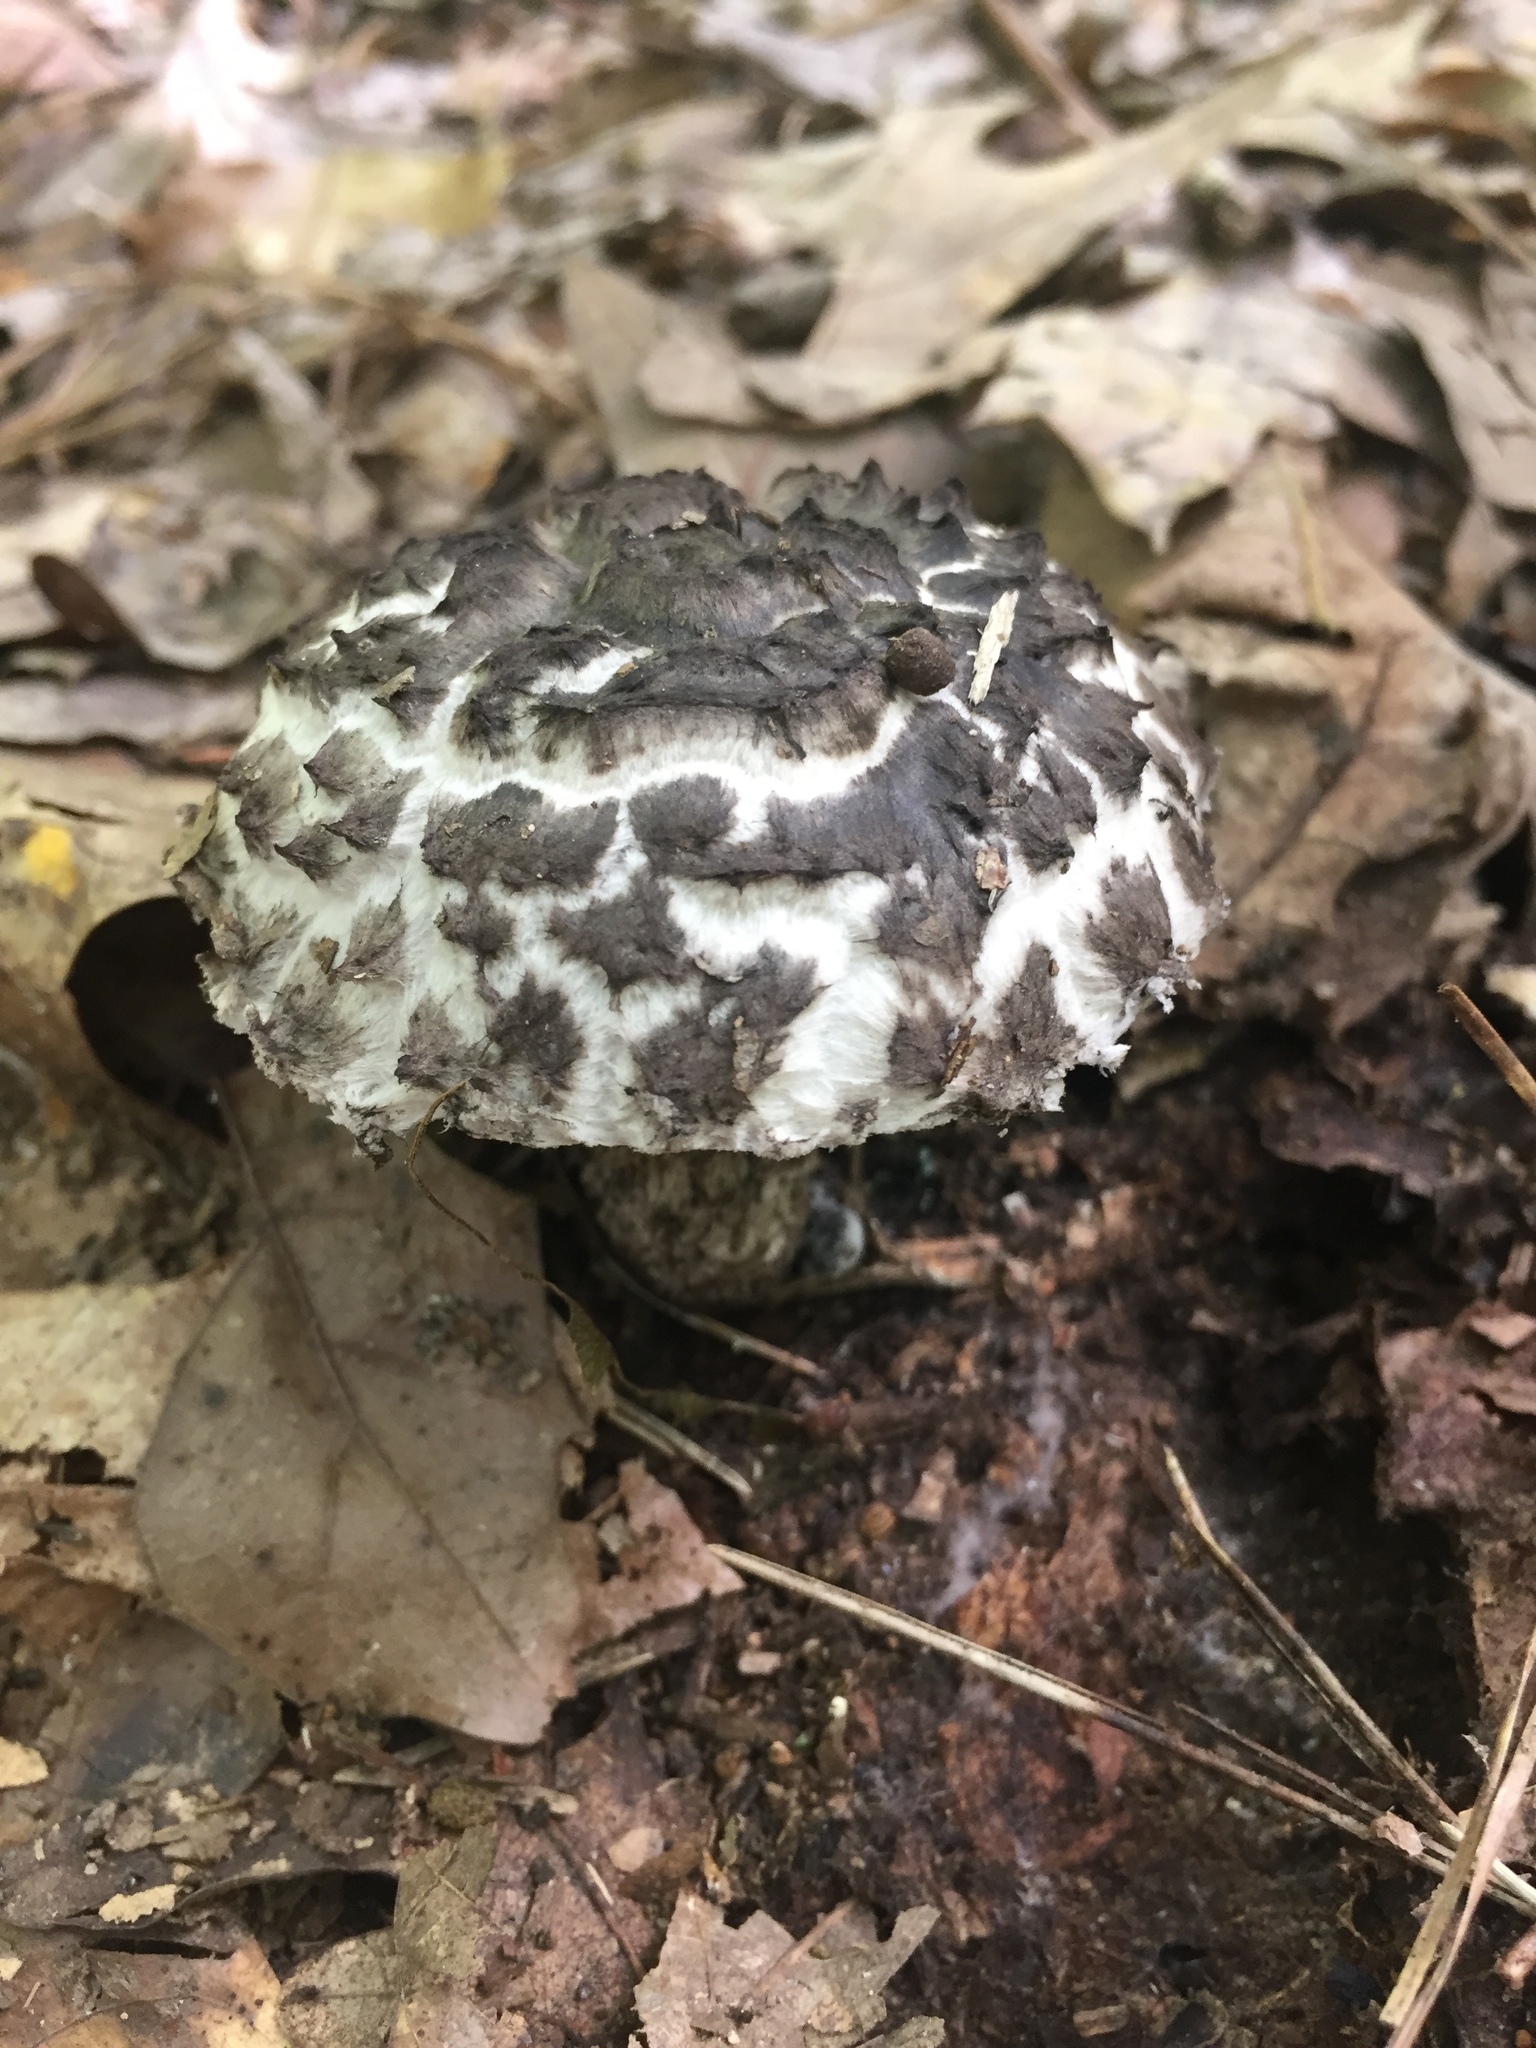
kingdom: Fungi
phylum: Basidiomycota
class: Agaricomycetes
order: Boletales
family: Boletaceae
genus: Strobilomyces
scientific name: Strobilomyces strobilaceus
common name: Old man of the woods
